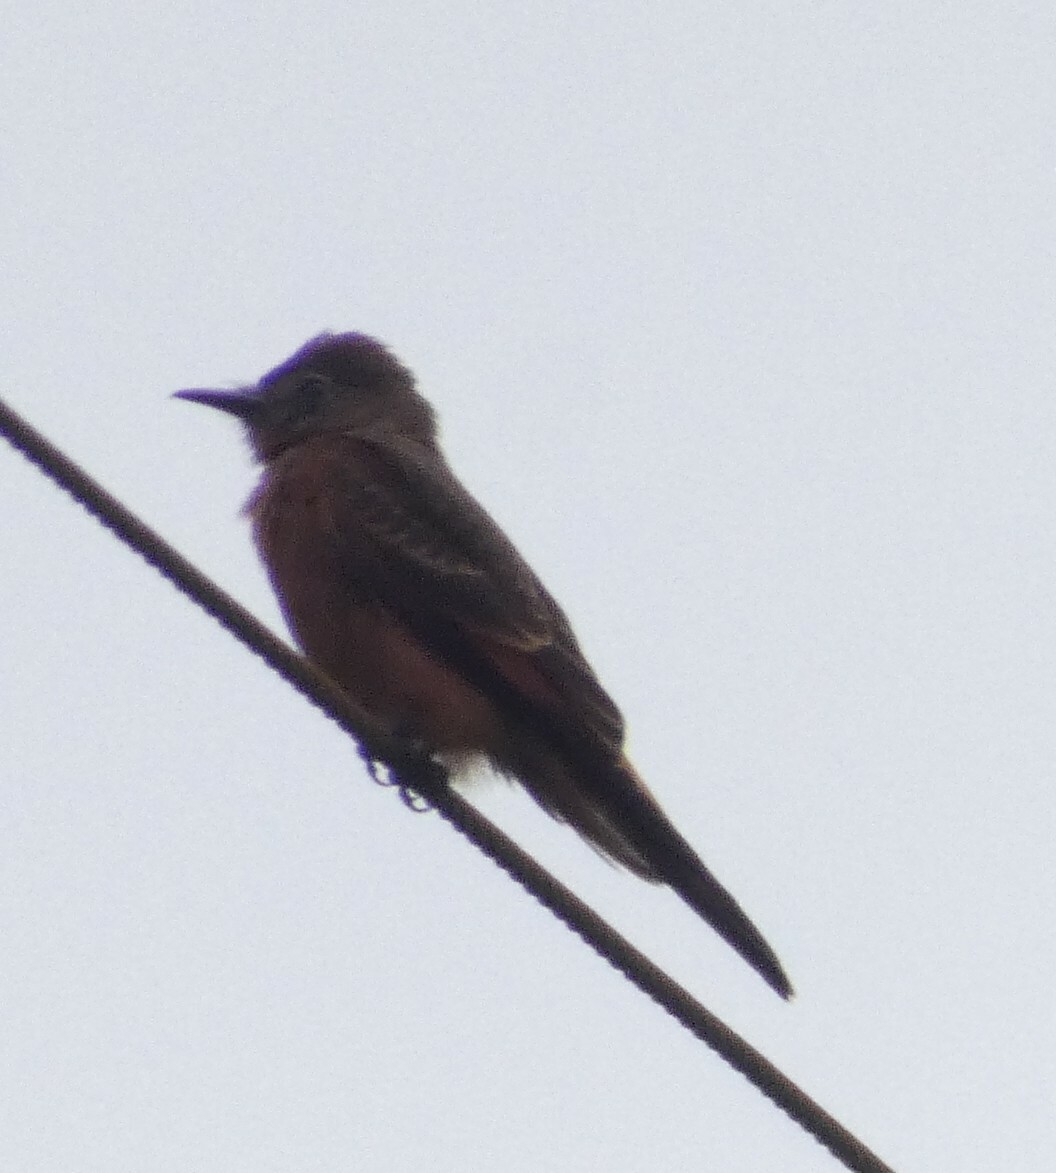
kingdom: Animalia
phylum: Chordata
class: Aves
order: Passeriformes
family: Tyrannidae
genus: Hirundinea
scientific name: Hirundinea ferruginea
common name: Cliff flycatcher
